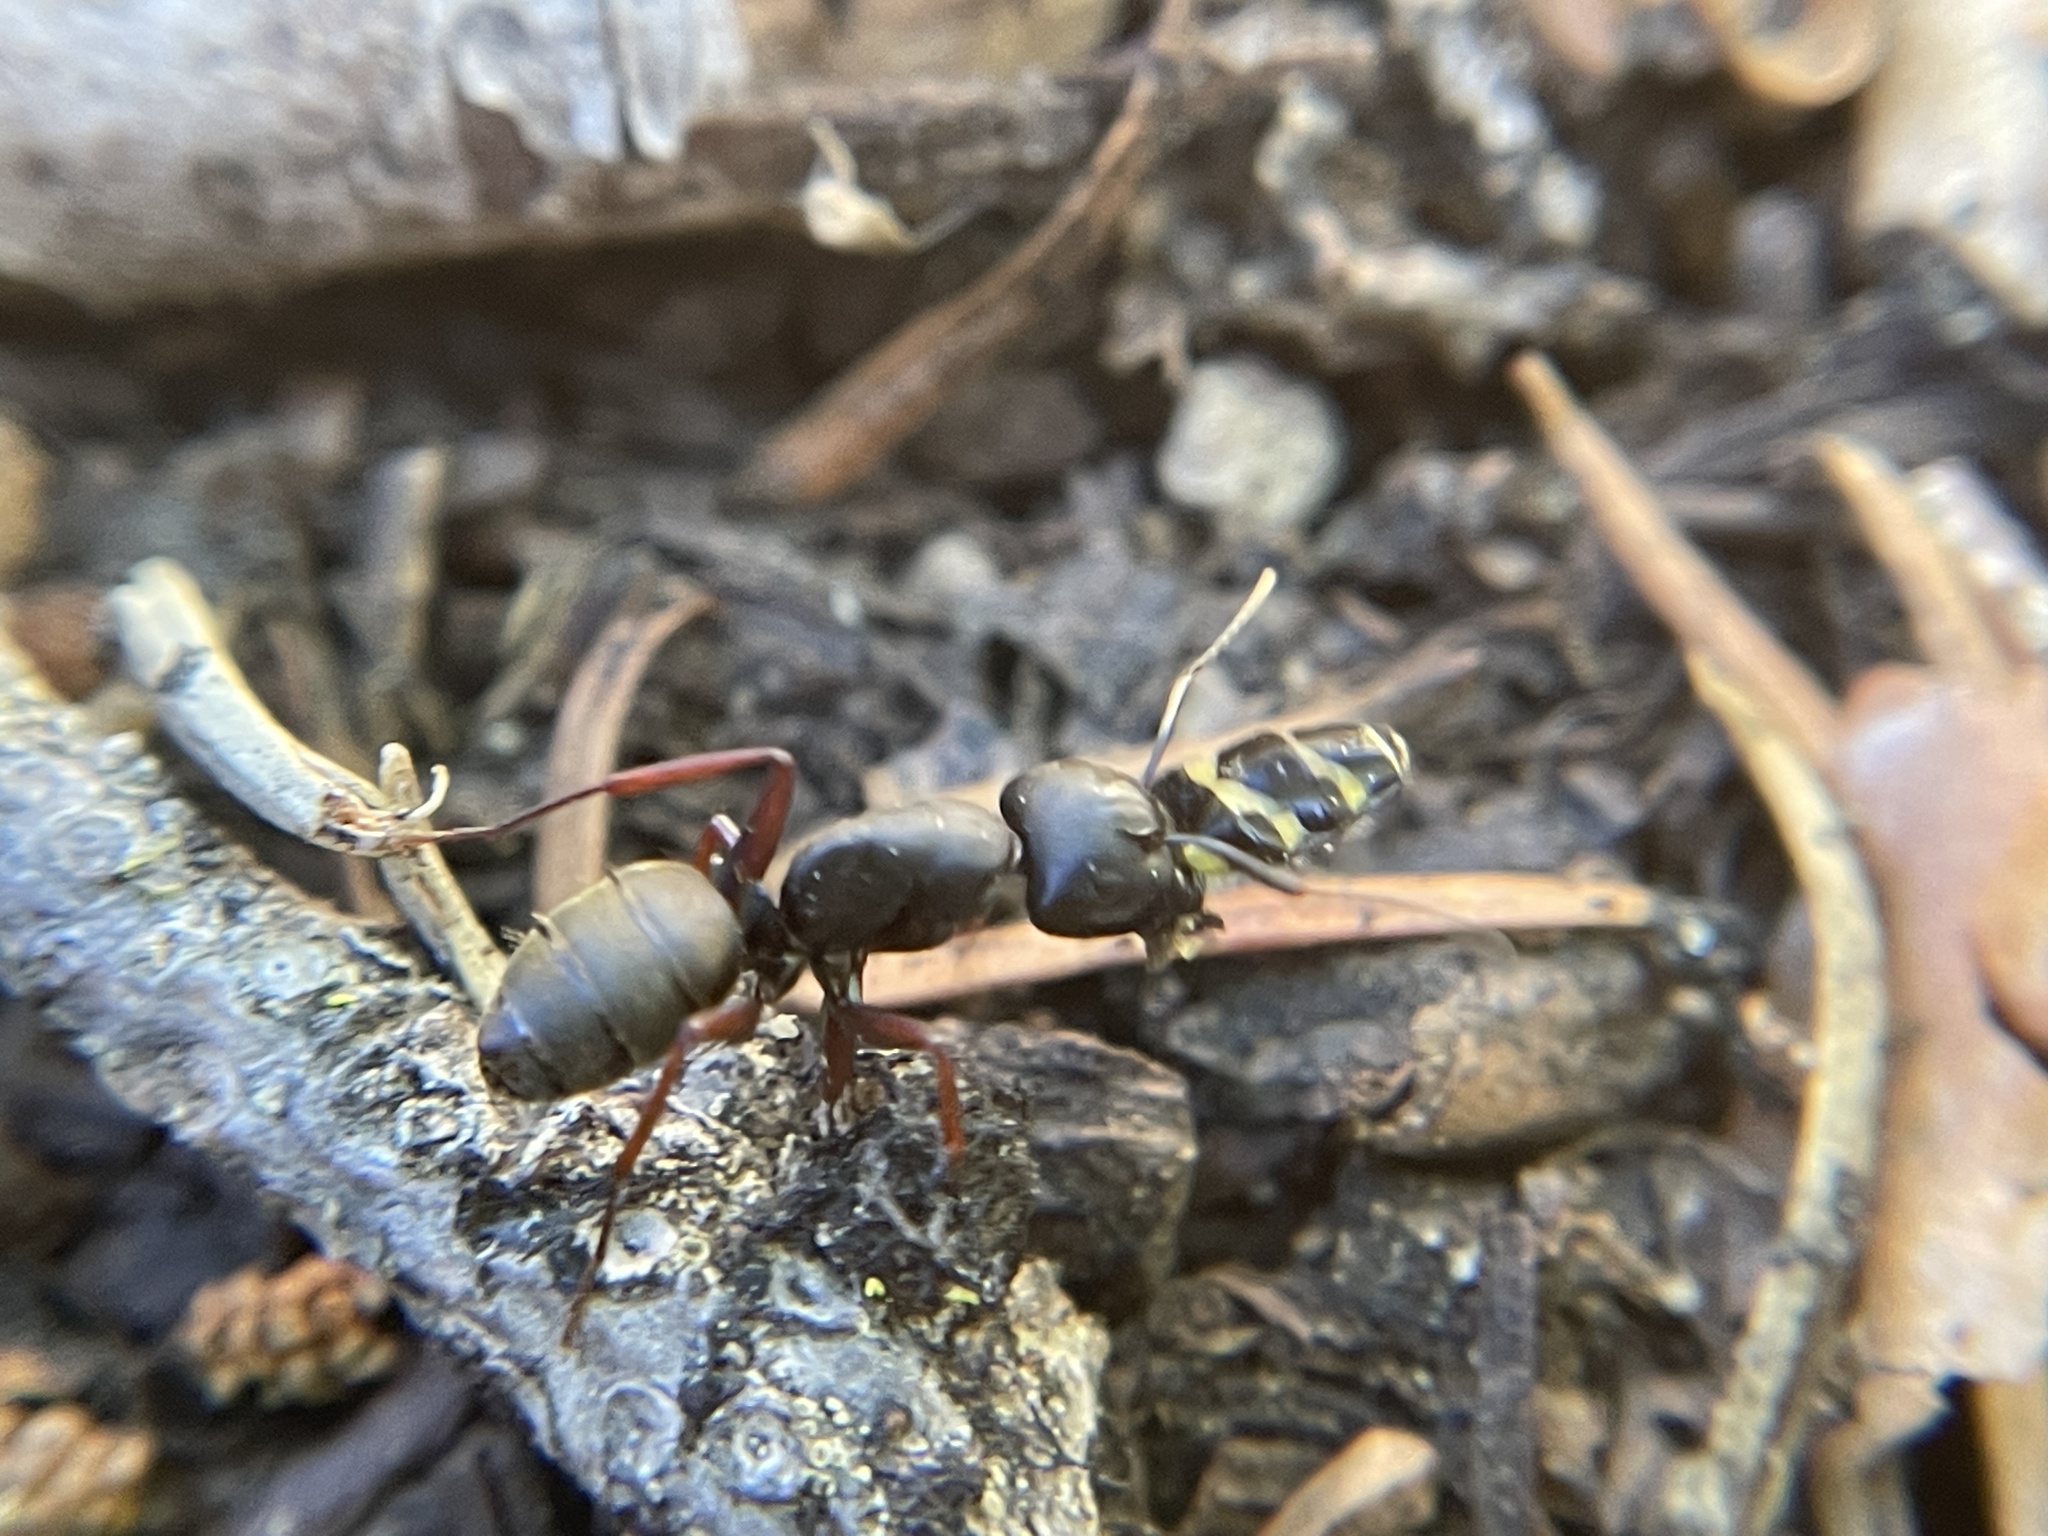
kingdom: Animalia
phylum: Arthropoda
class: Insecta
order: Hymenoptera
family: Formicidae
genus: Camponotus
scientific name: Camponotus modoc
